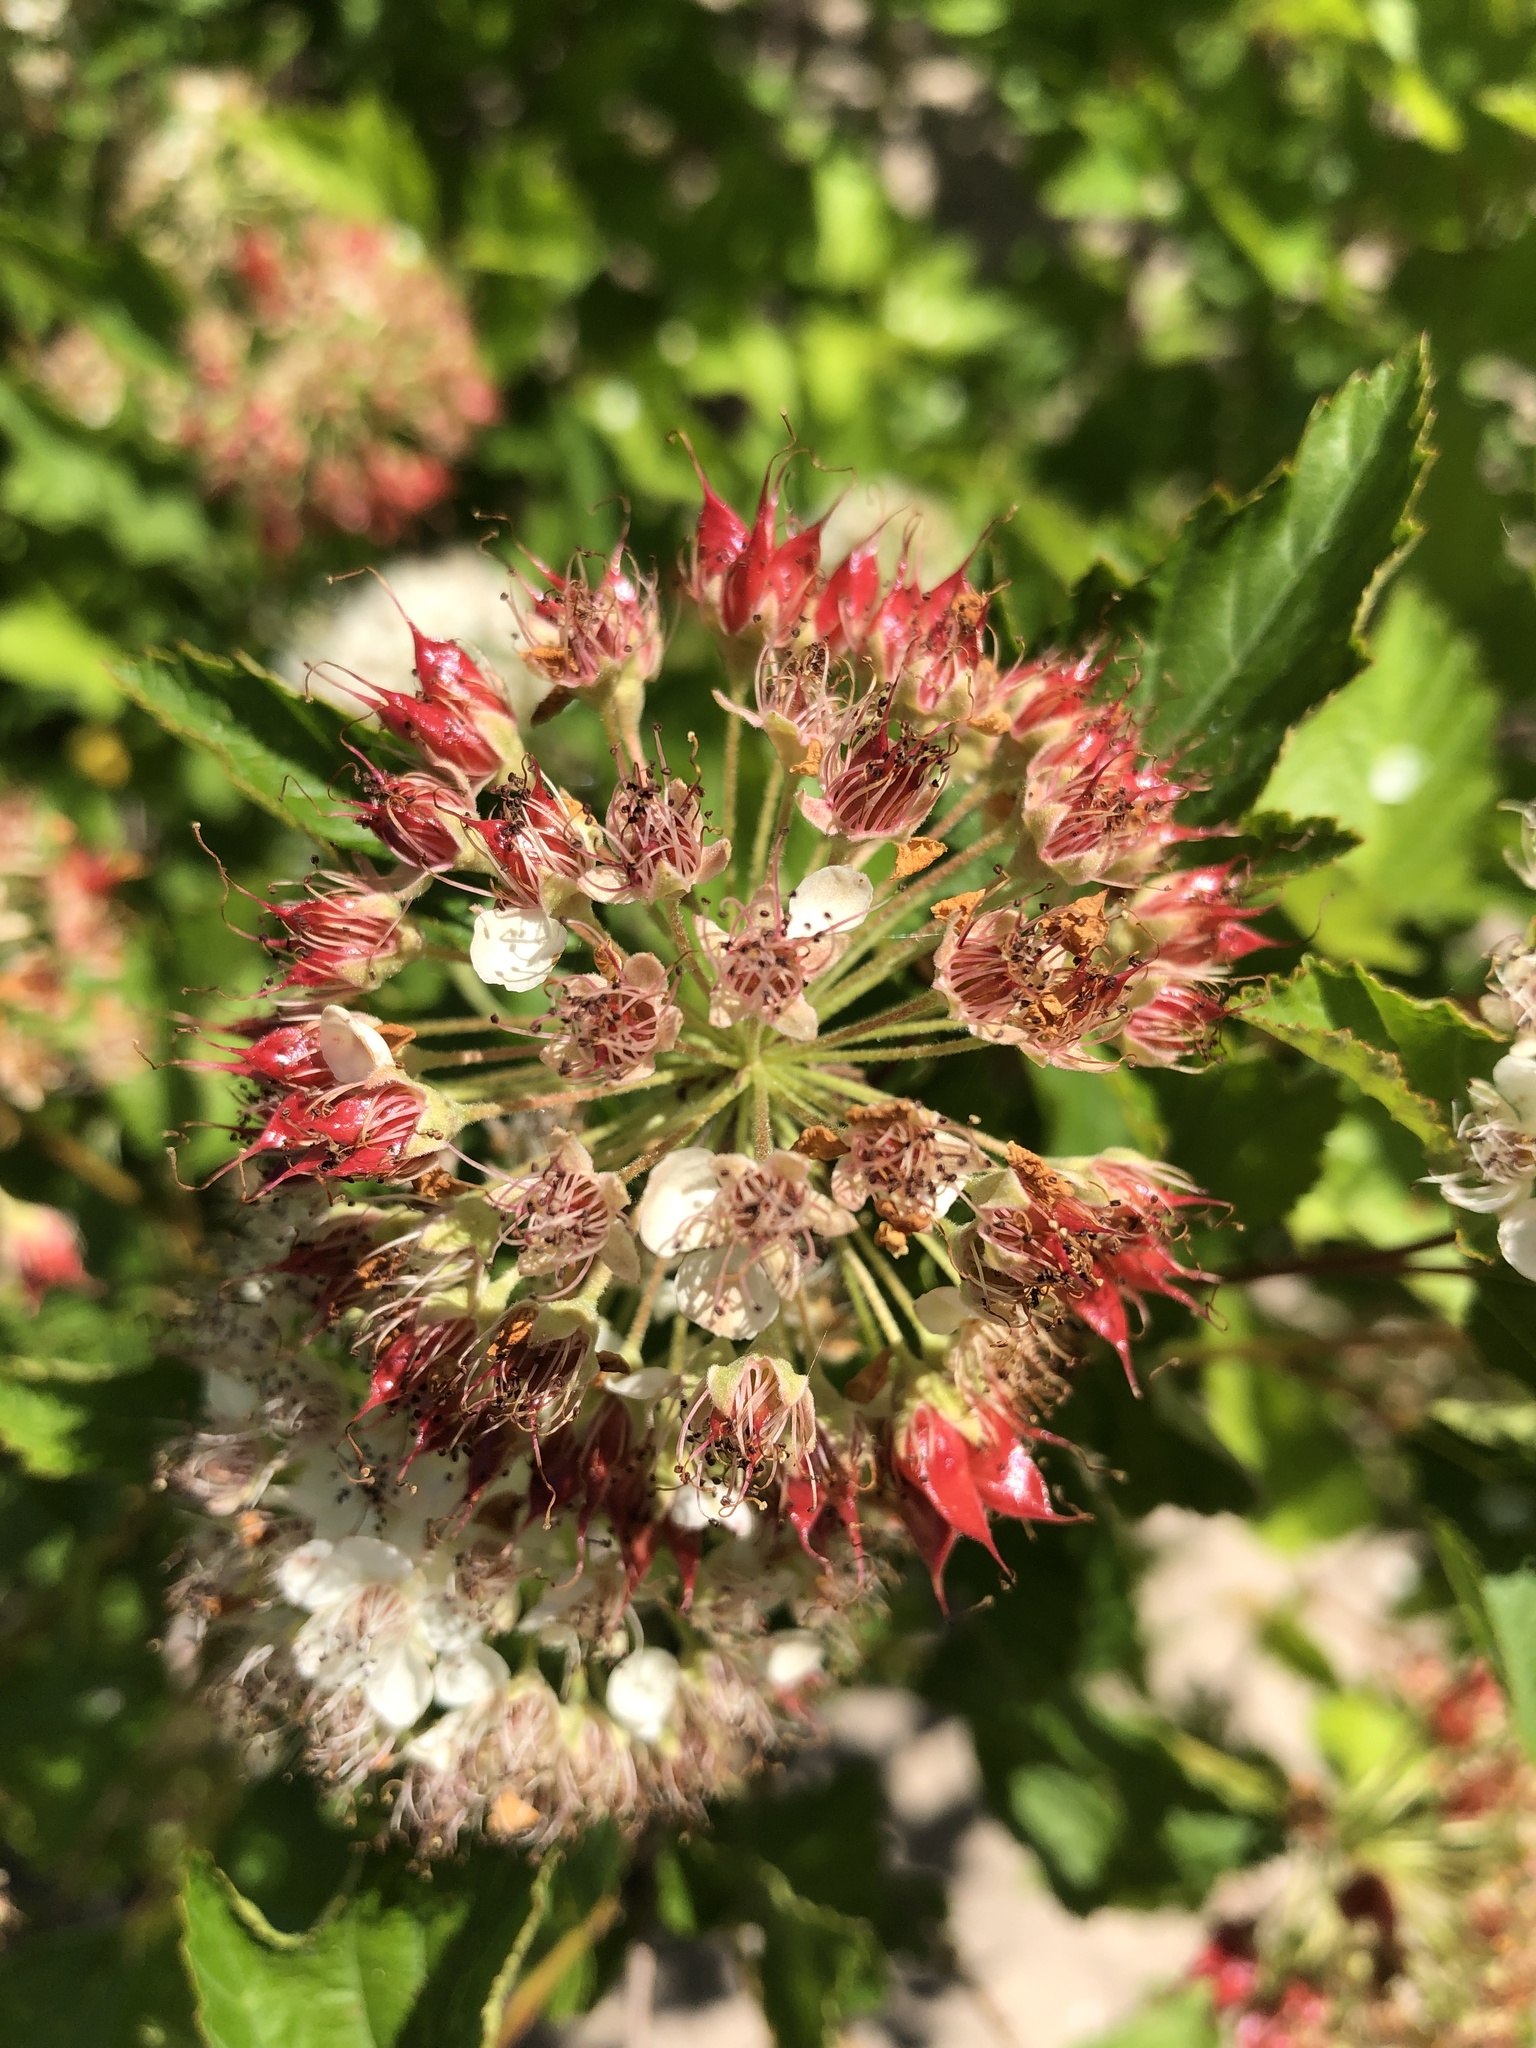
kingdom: Plantae
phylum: Tracheophyta
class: Magnoliopsida
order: Rosales
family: Rosaceae
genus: Physocarpus
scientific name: Physocarpus opulifolius
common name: Ninebark
